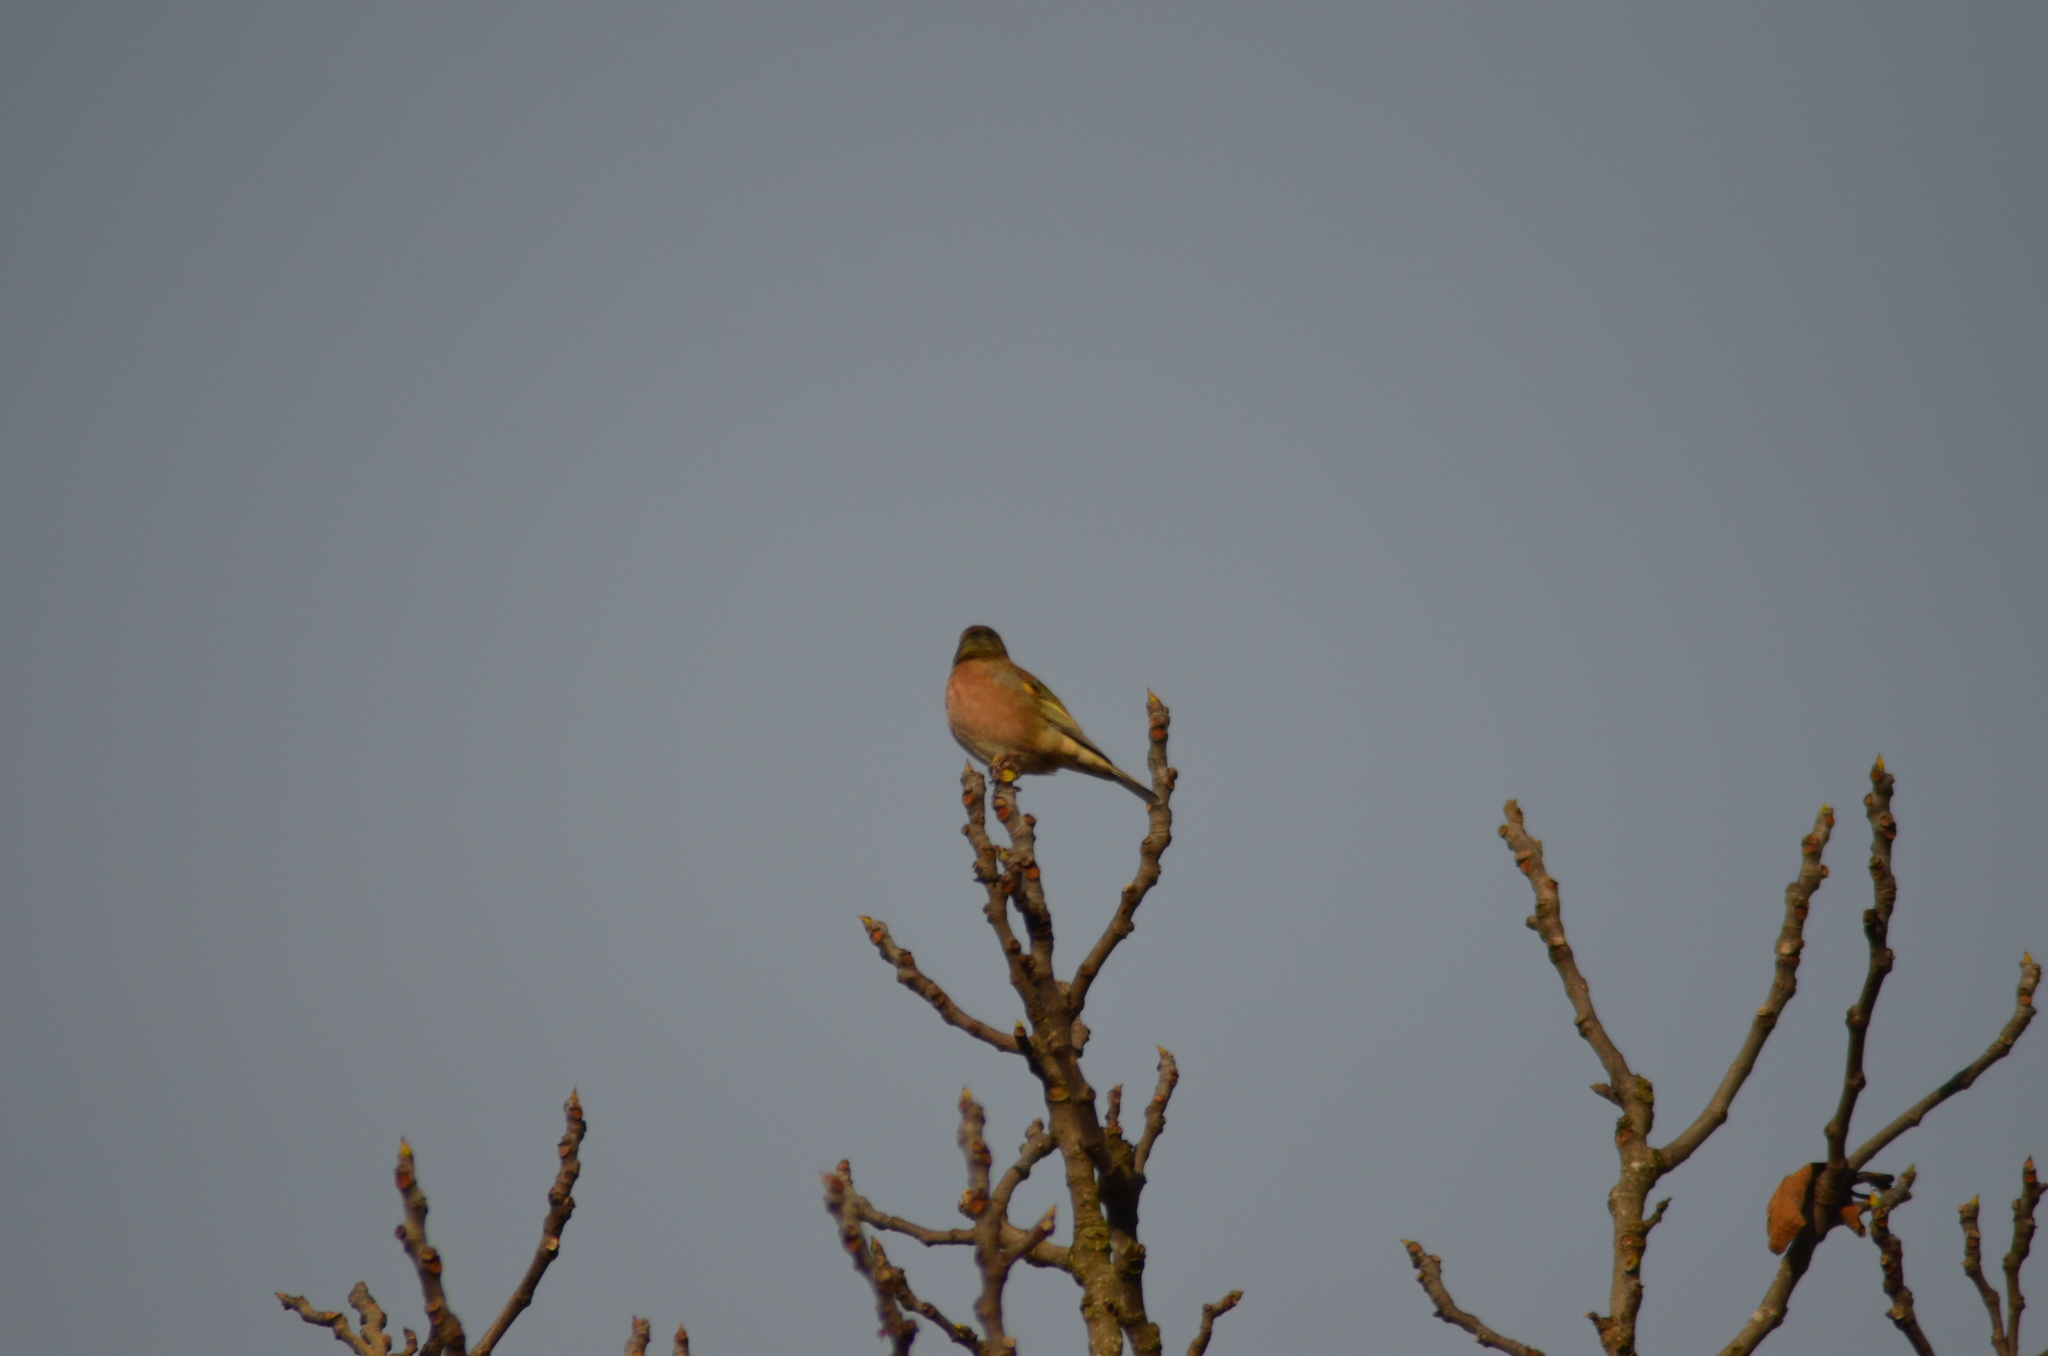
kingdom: Animalia
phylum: Chordata
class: Aves
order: Passeriformes
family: Fringillidae
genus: Fringilla
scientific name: Fringilla coelebs
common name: Common chaffinch
